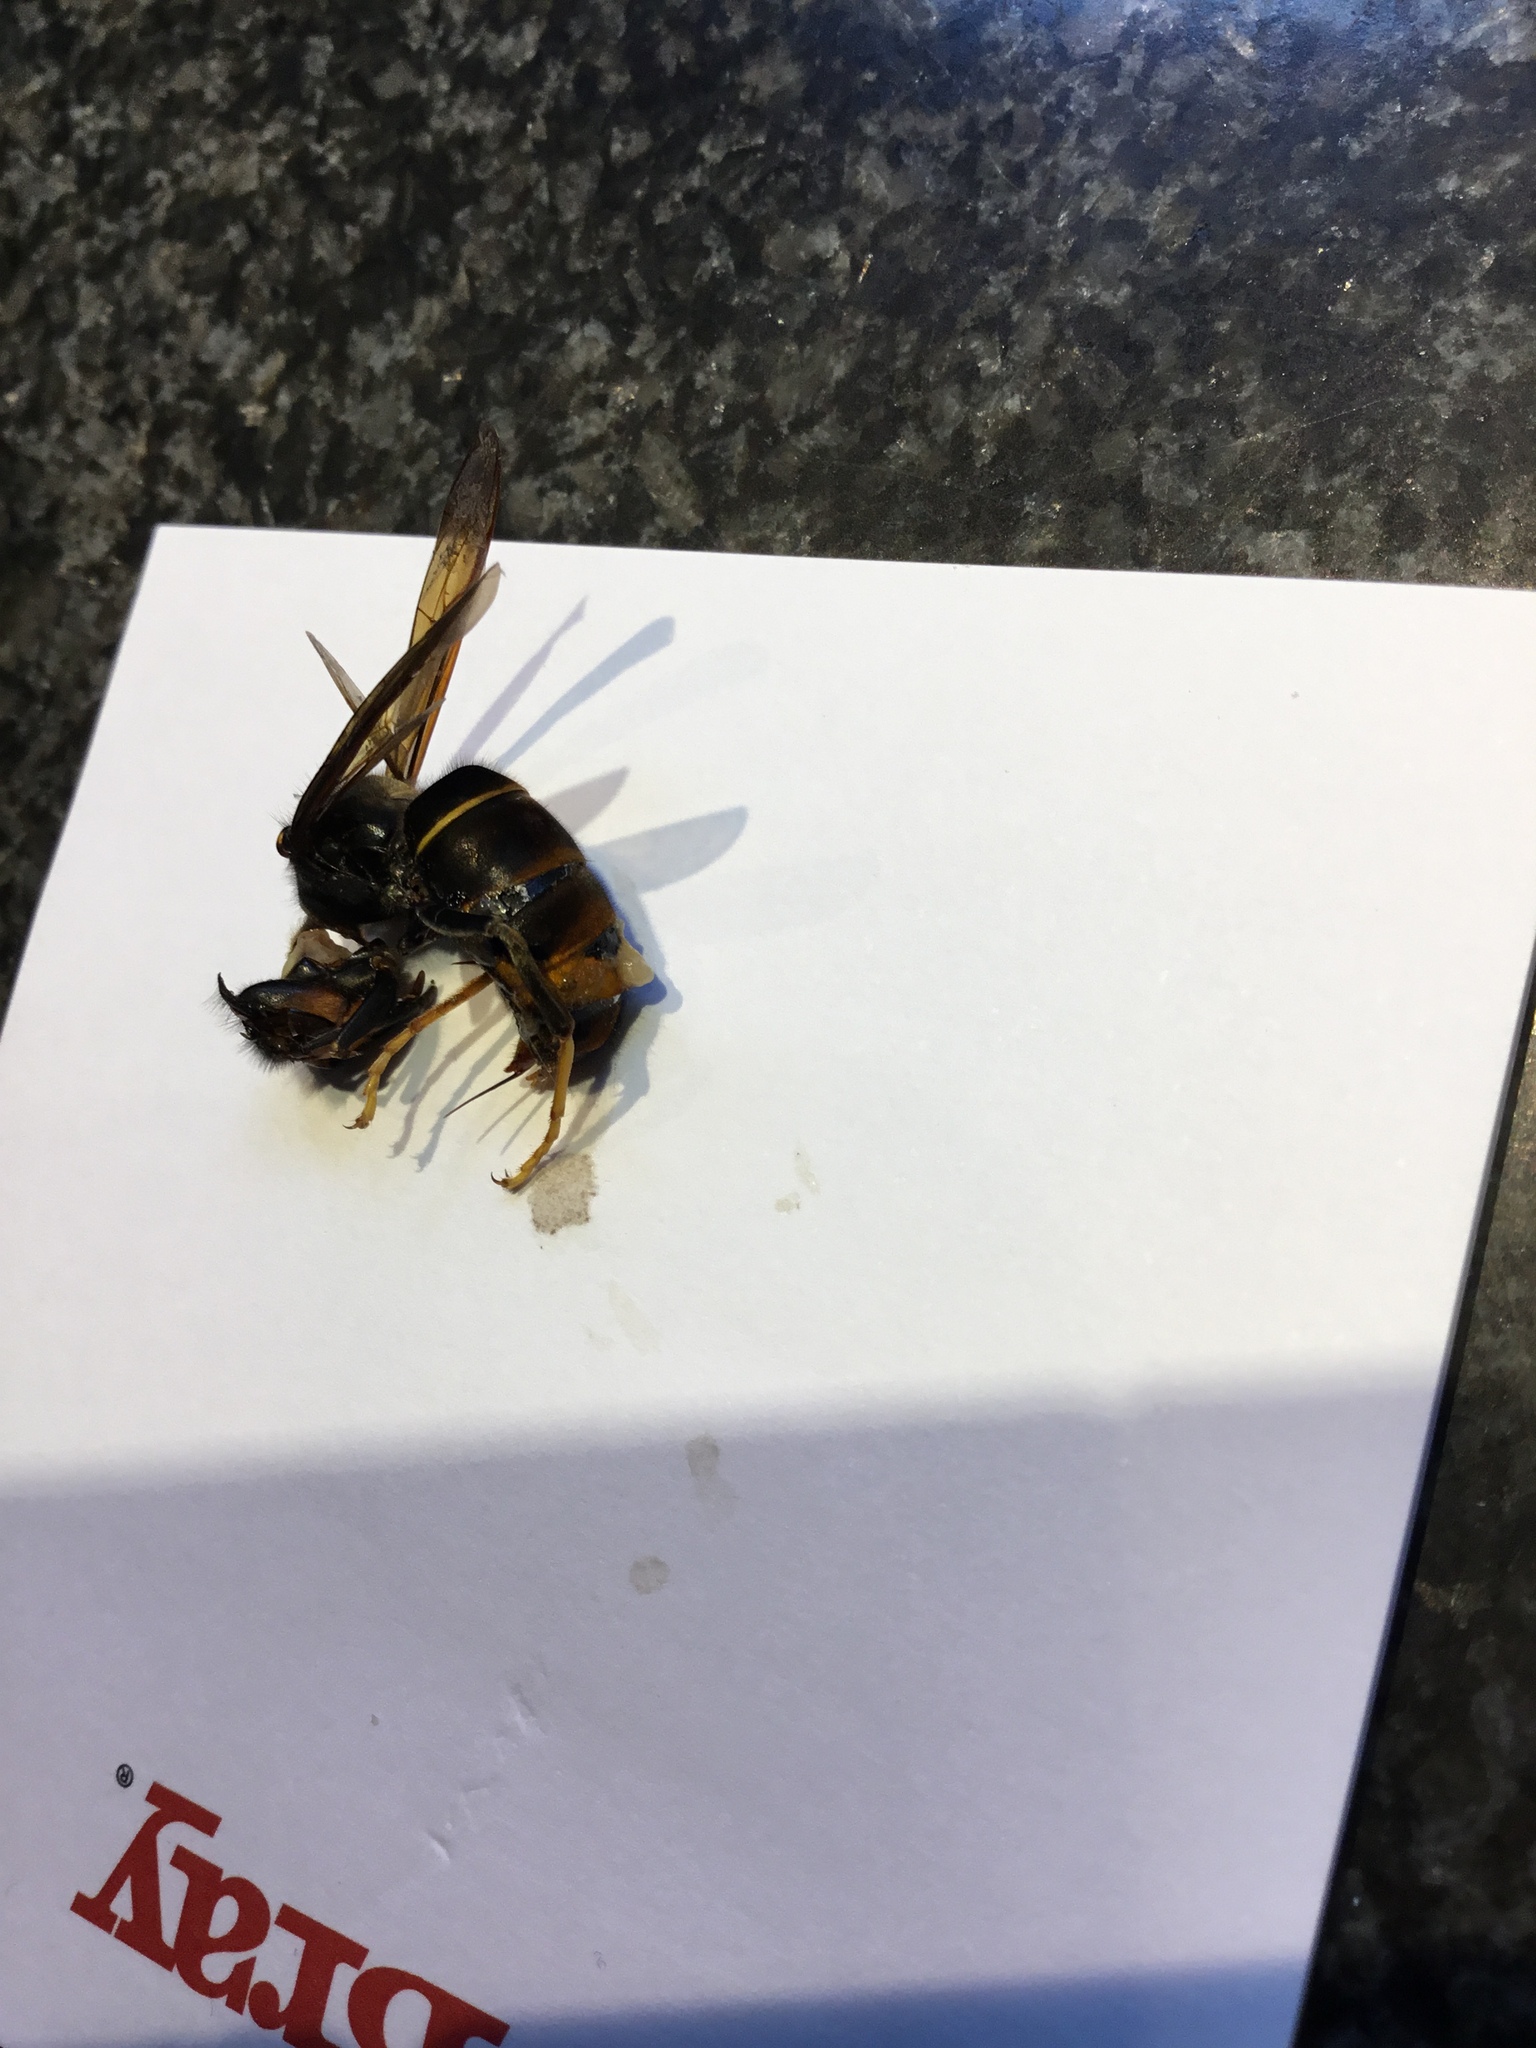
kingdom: Animalia
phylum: Arthropoda
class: Insecta
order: Hymenoptera
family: Vespidae
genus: Vespa
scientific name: Vespa velutina
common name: Asian hornet
